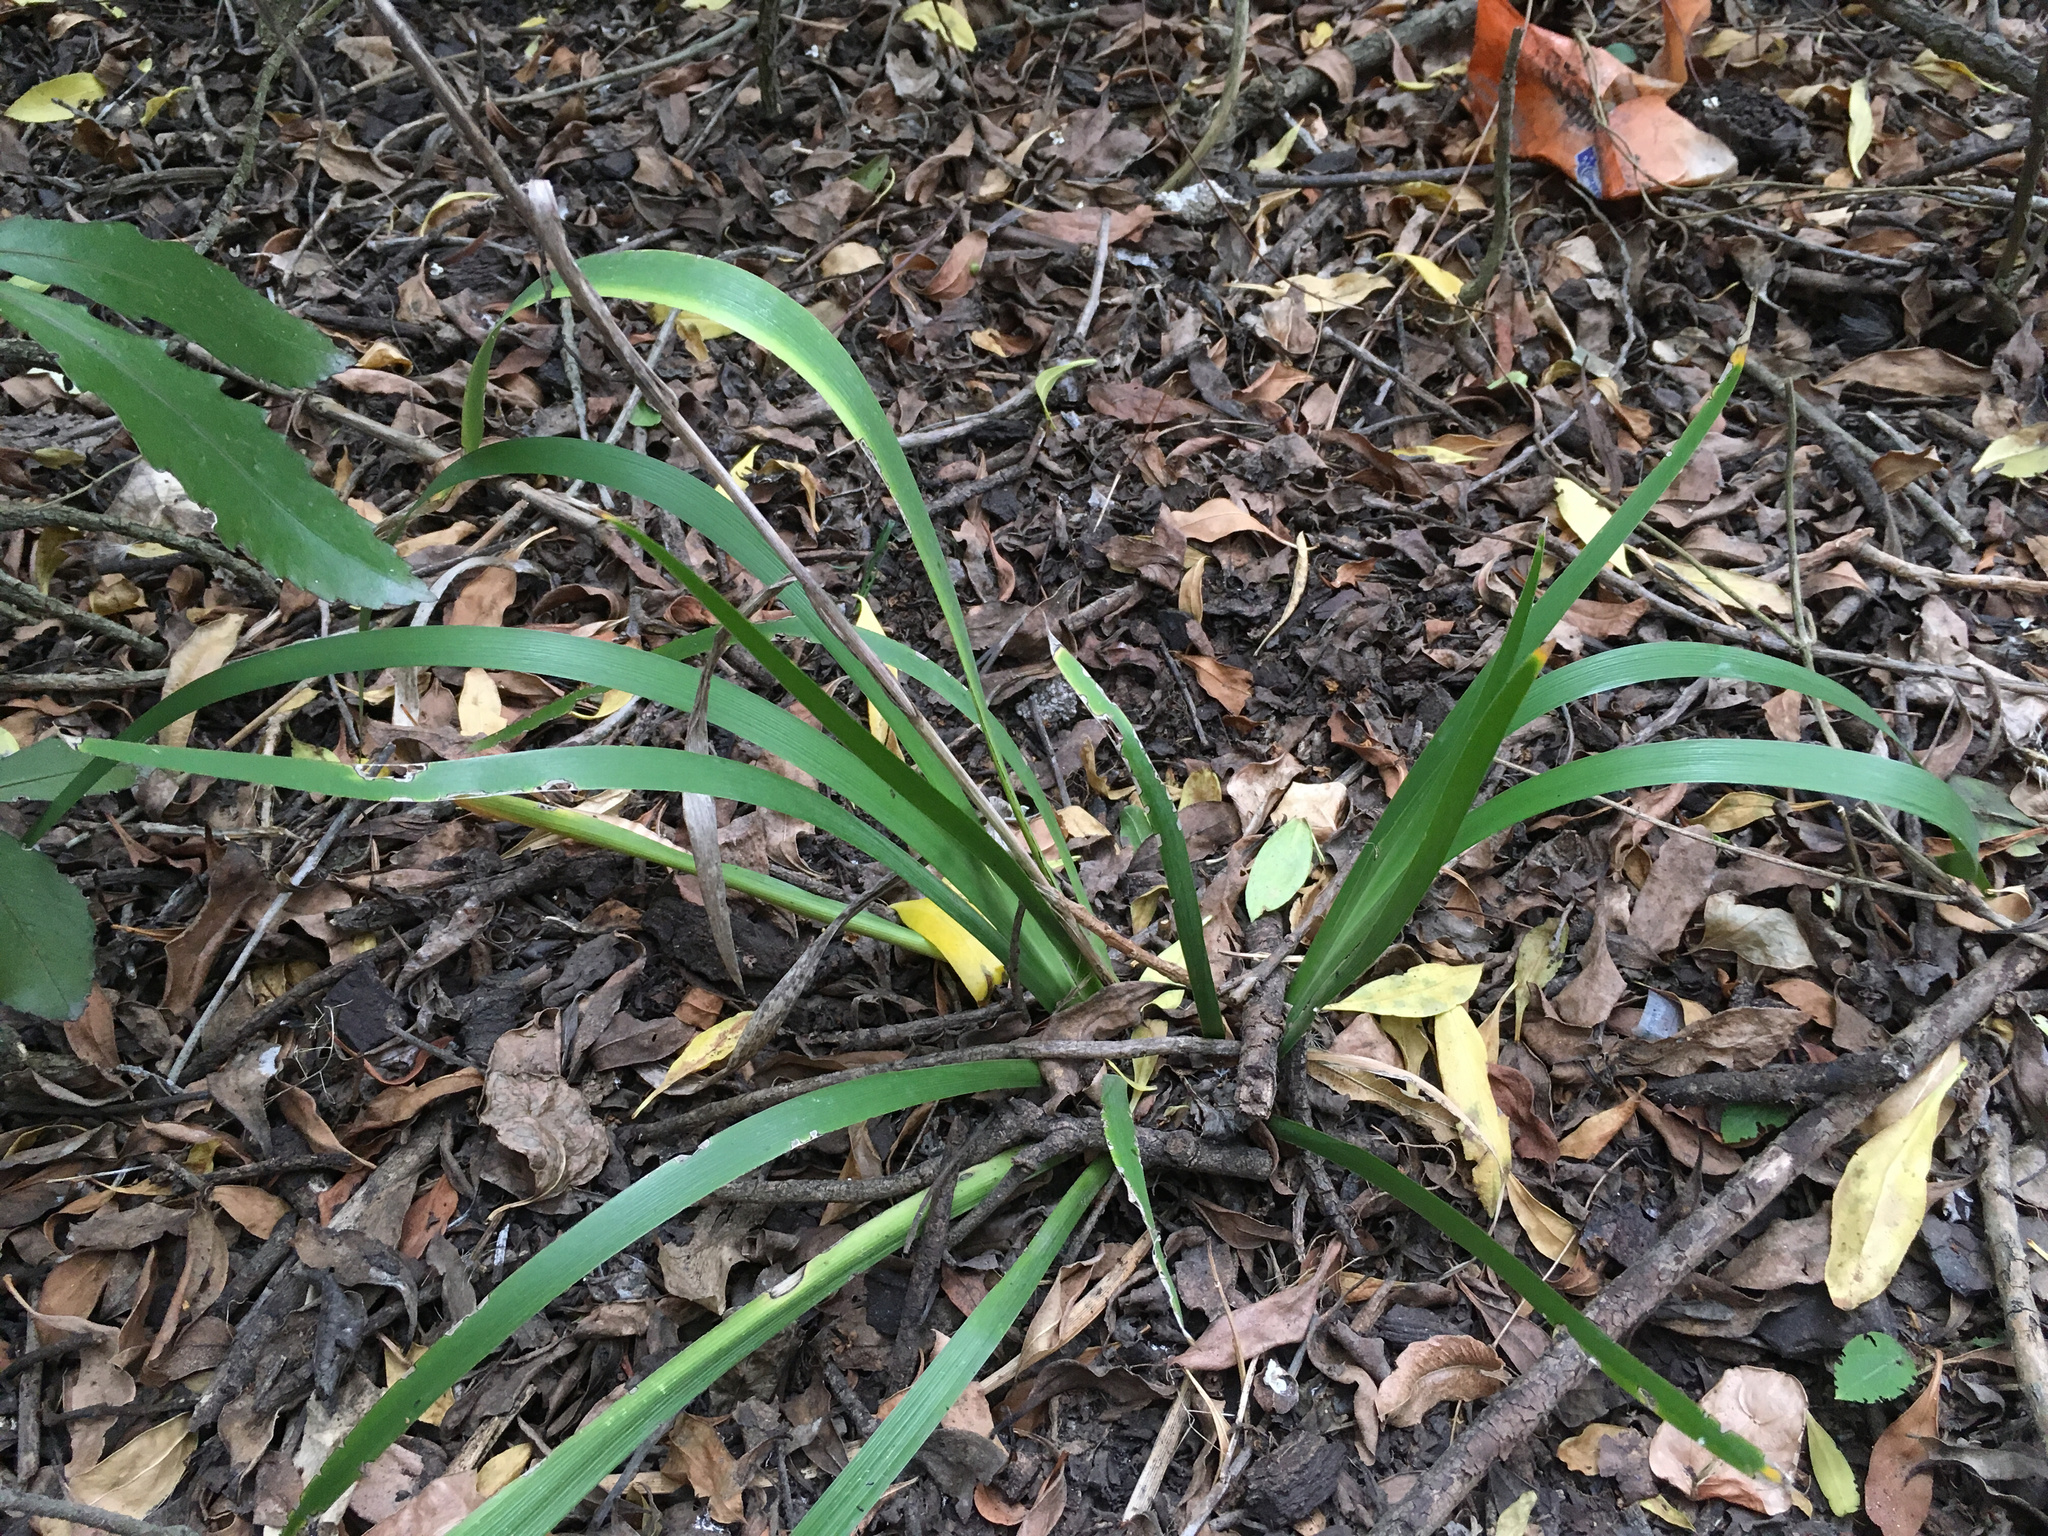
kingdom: Plantae
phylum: Tracheophyta
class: Liliopsida
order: Asparagales
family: Iridaceae
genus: Iris
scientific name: Iris foetidissima
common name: Stinking iris
